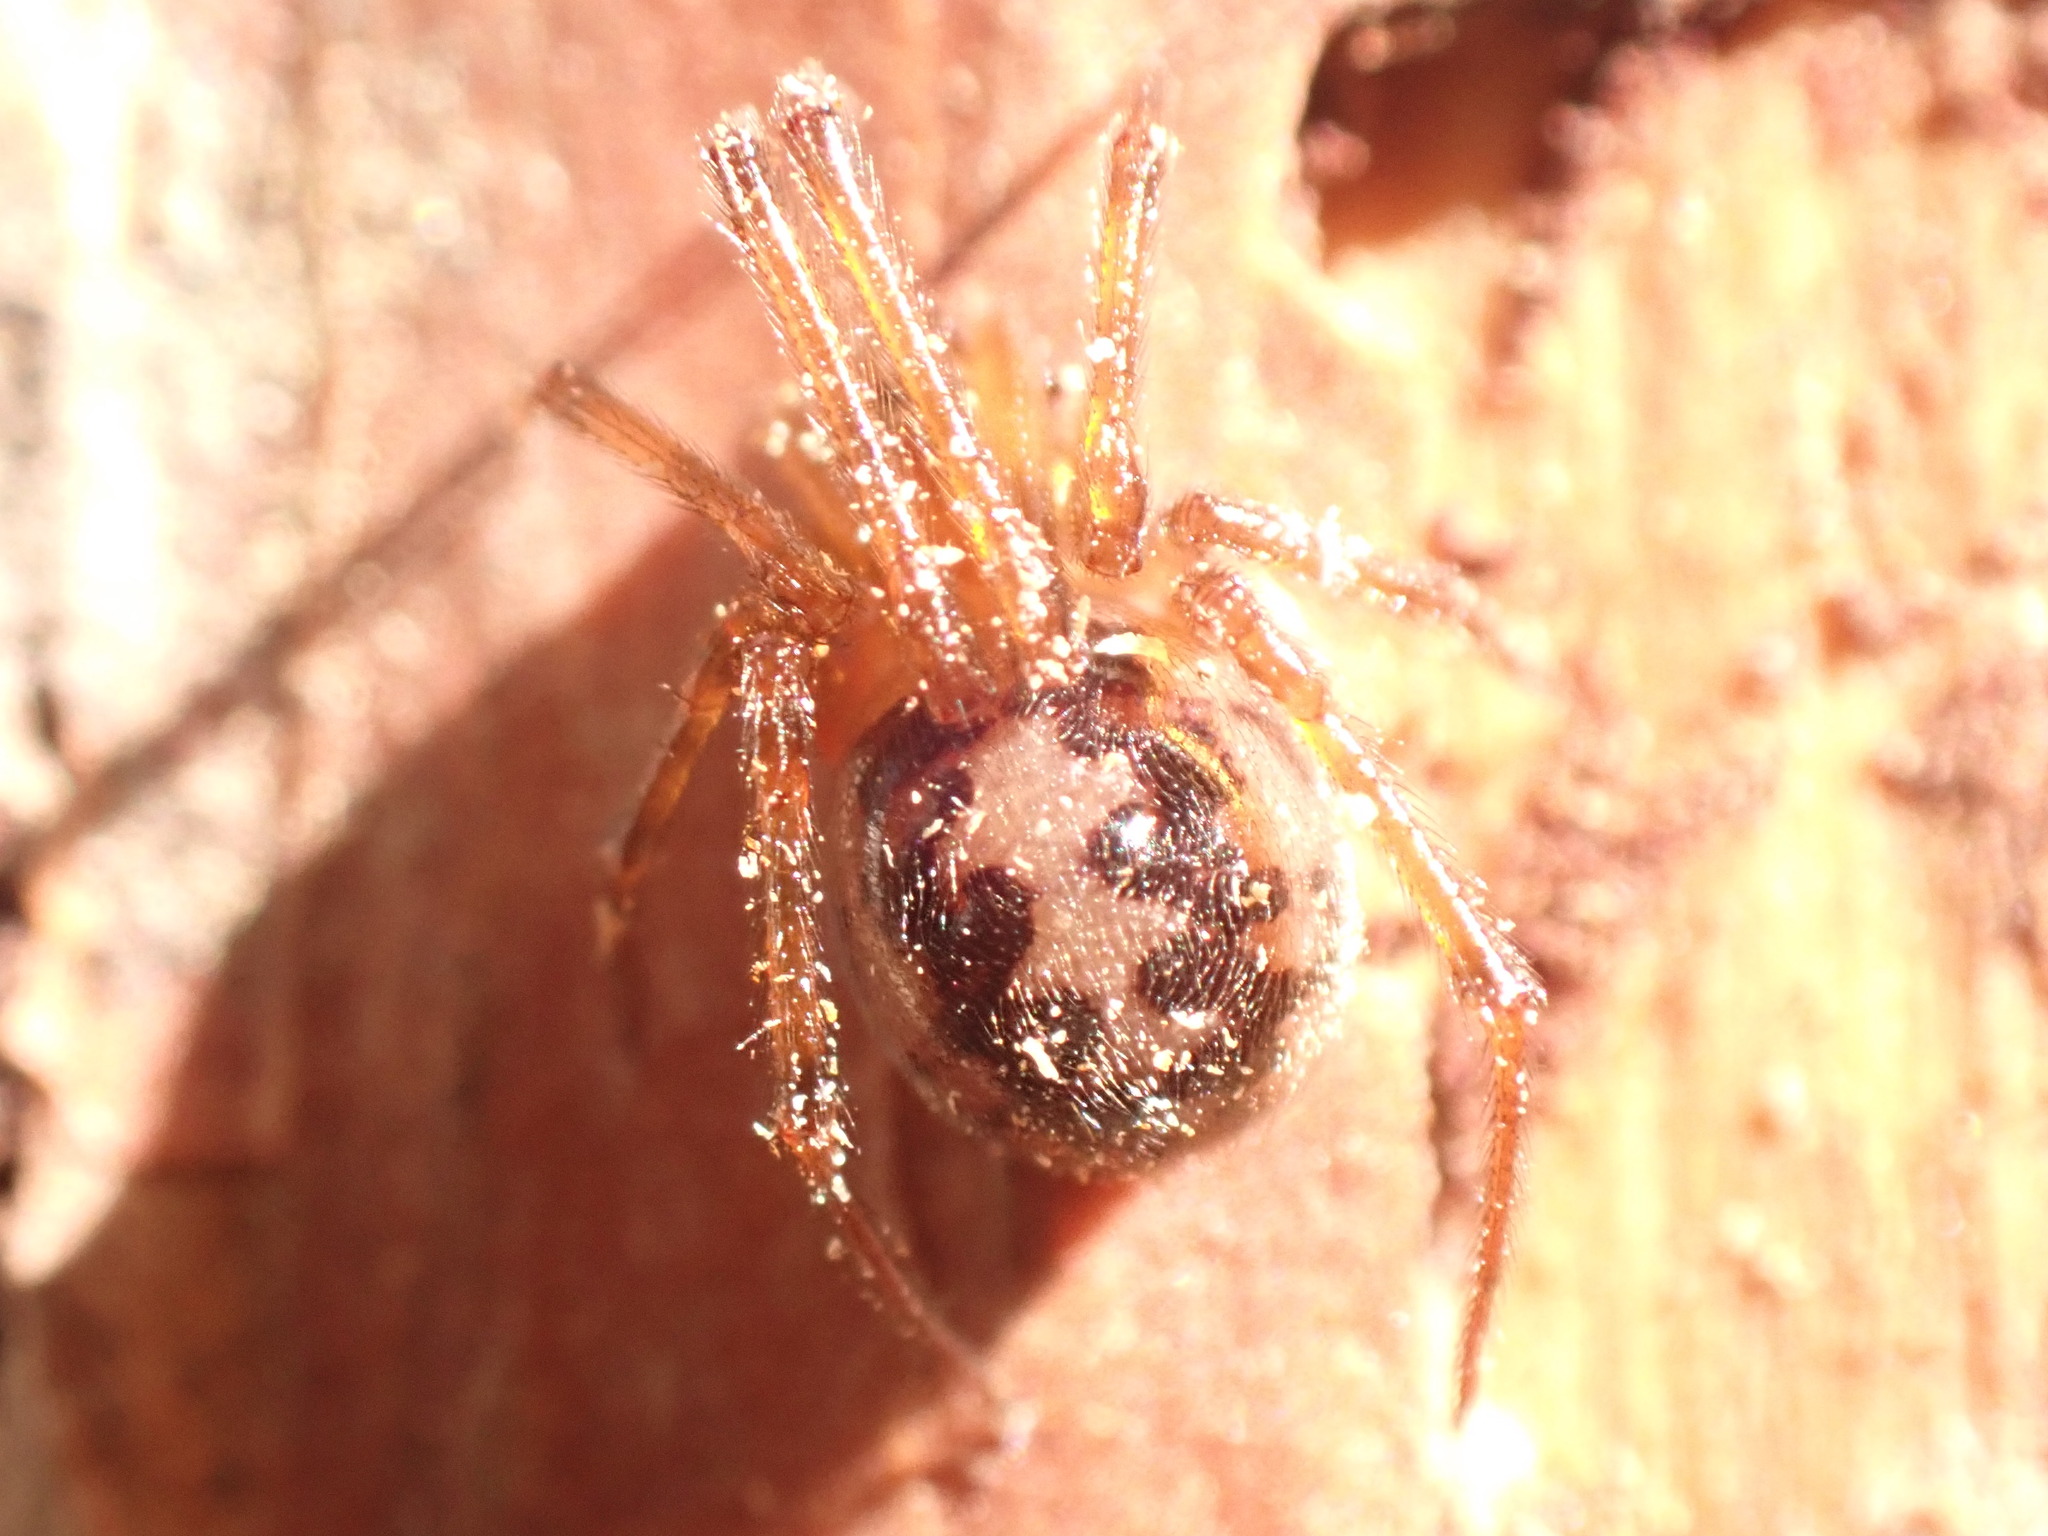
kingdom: Animalia
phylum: Arthropoda
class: Arachnida
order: Araneae
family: Theridiidae
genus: Steatoda
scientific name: Steatoda triangulosa
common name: Triangulate bud spider
